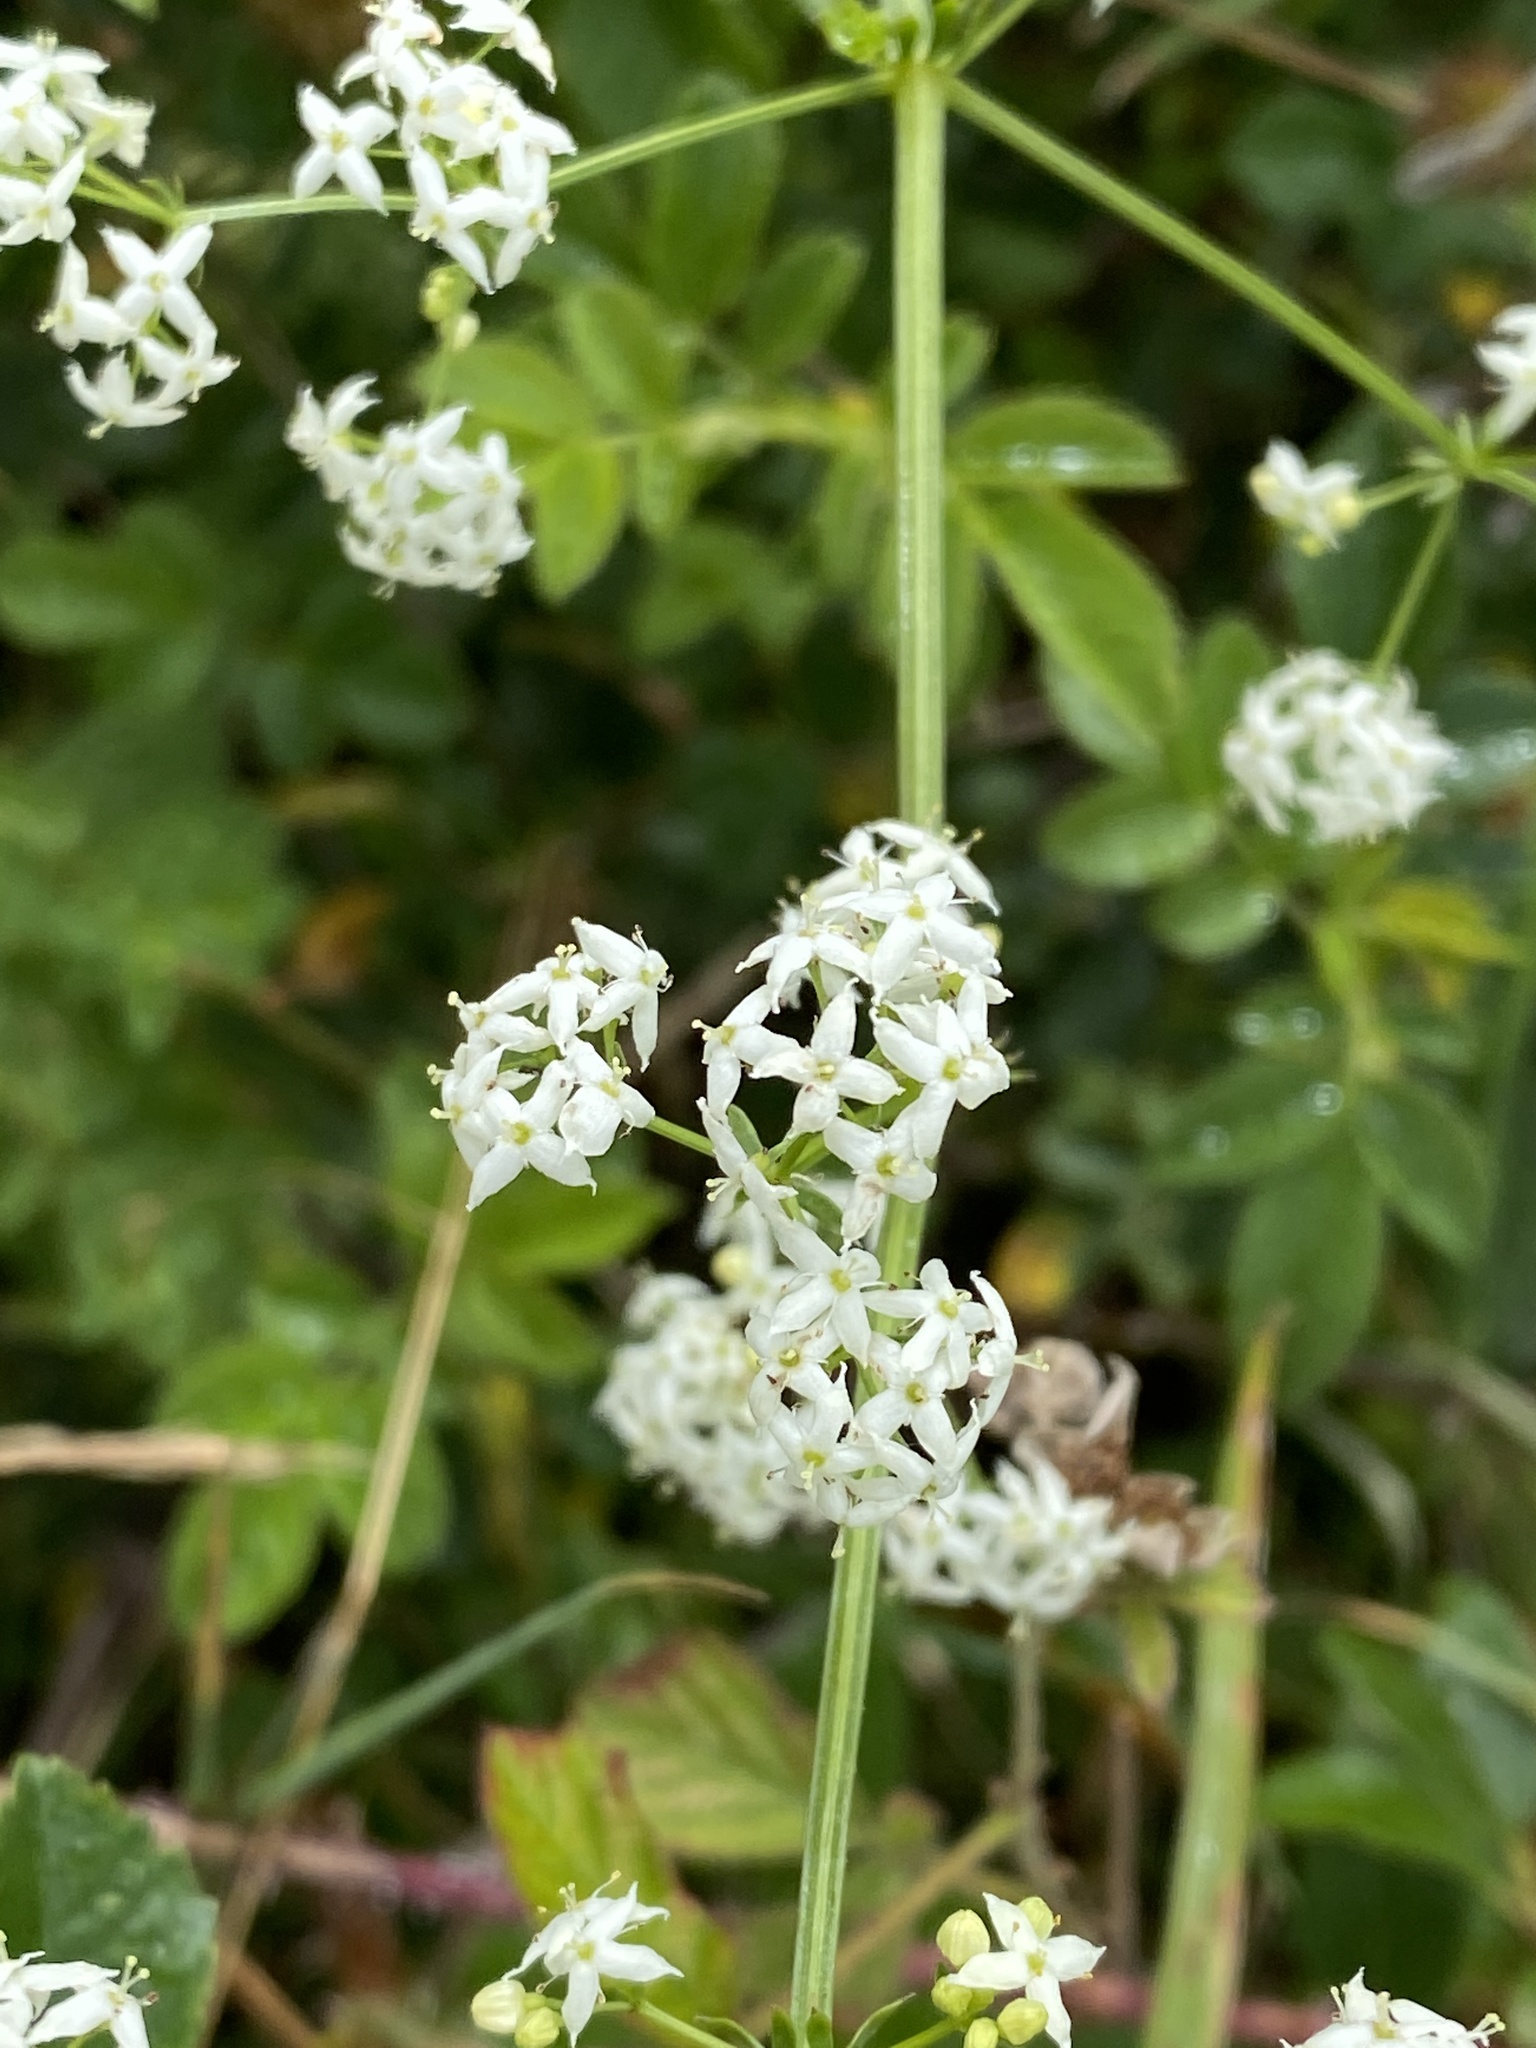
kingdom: Plantae
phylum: Tracheophyta
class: Magnoliopsida
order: Gentianales
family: Rubiaceae
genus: Galium
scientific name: Galium mollugo
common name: Hedge bedstraw
